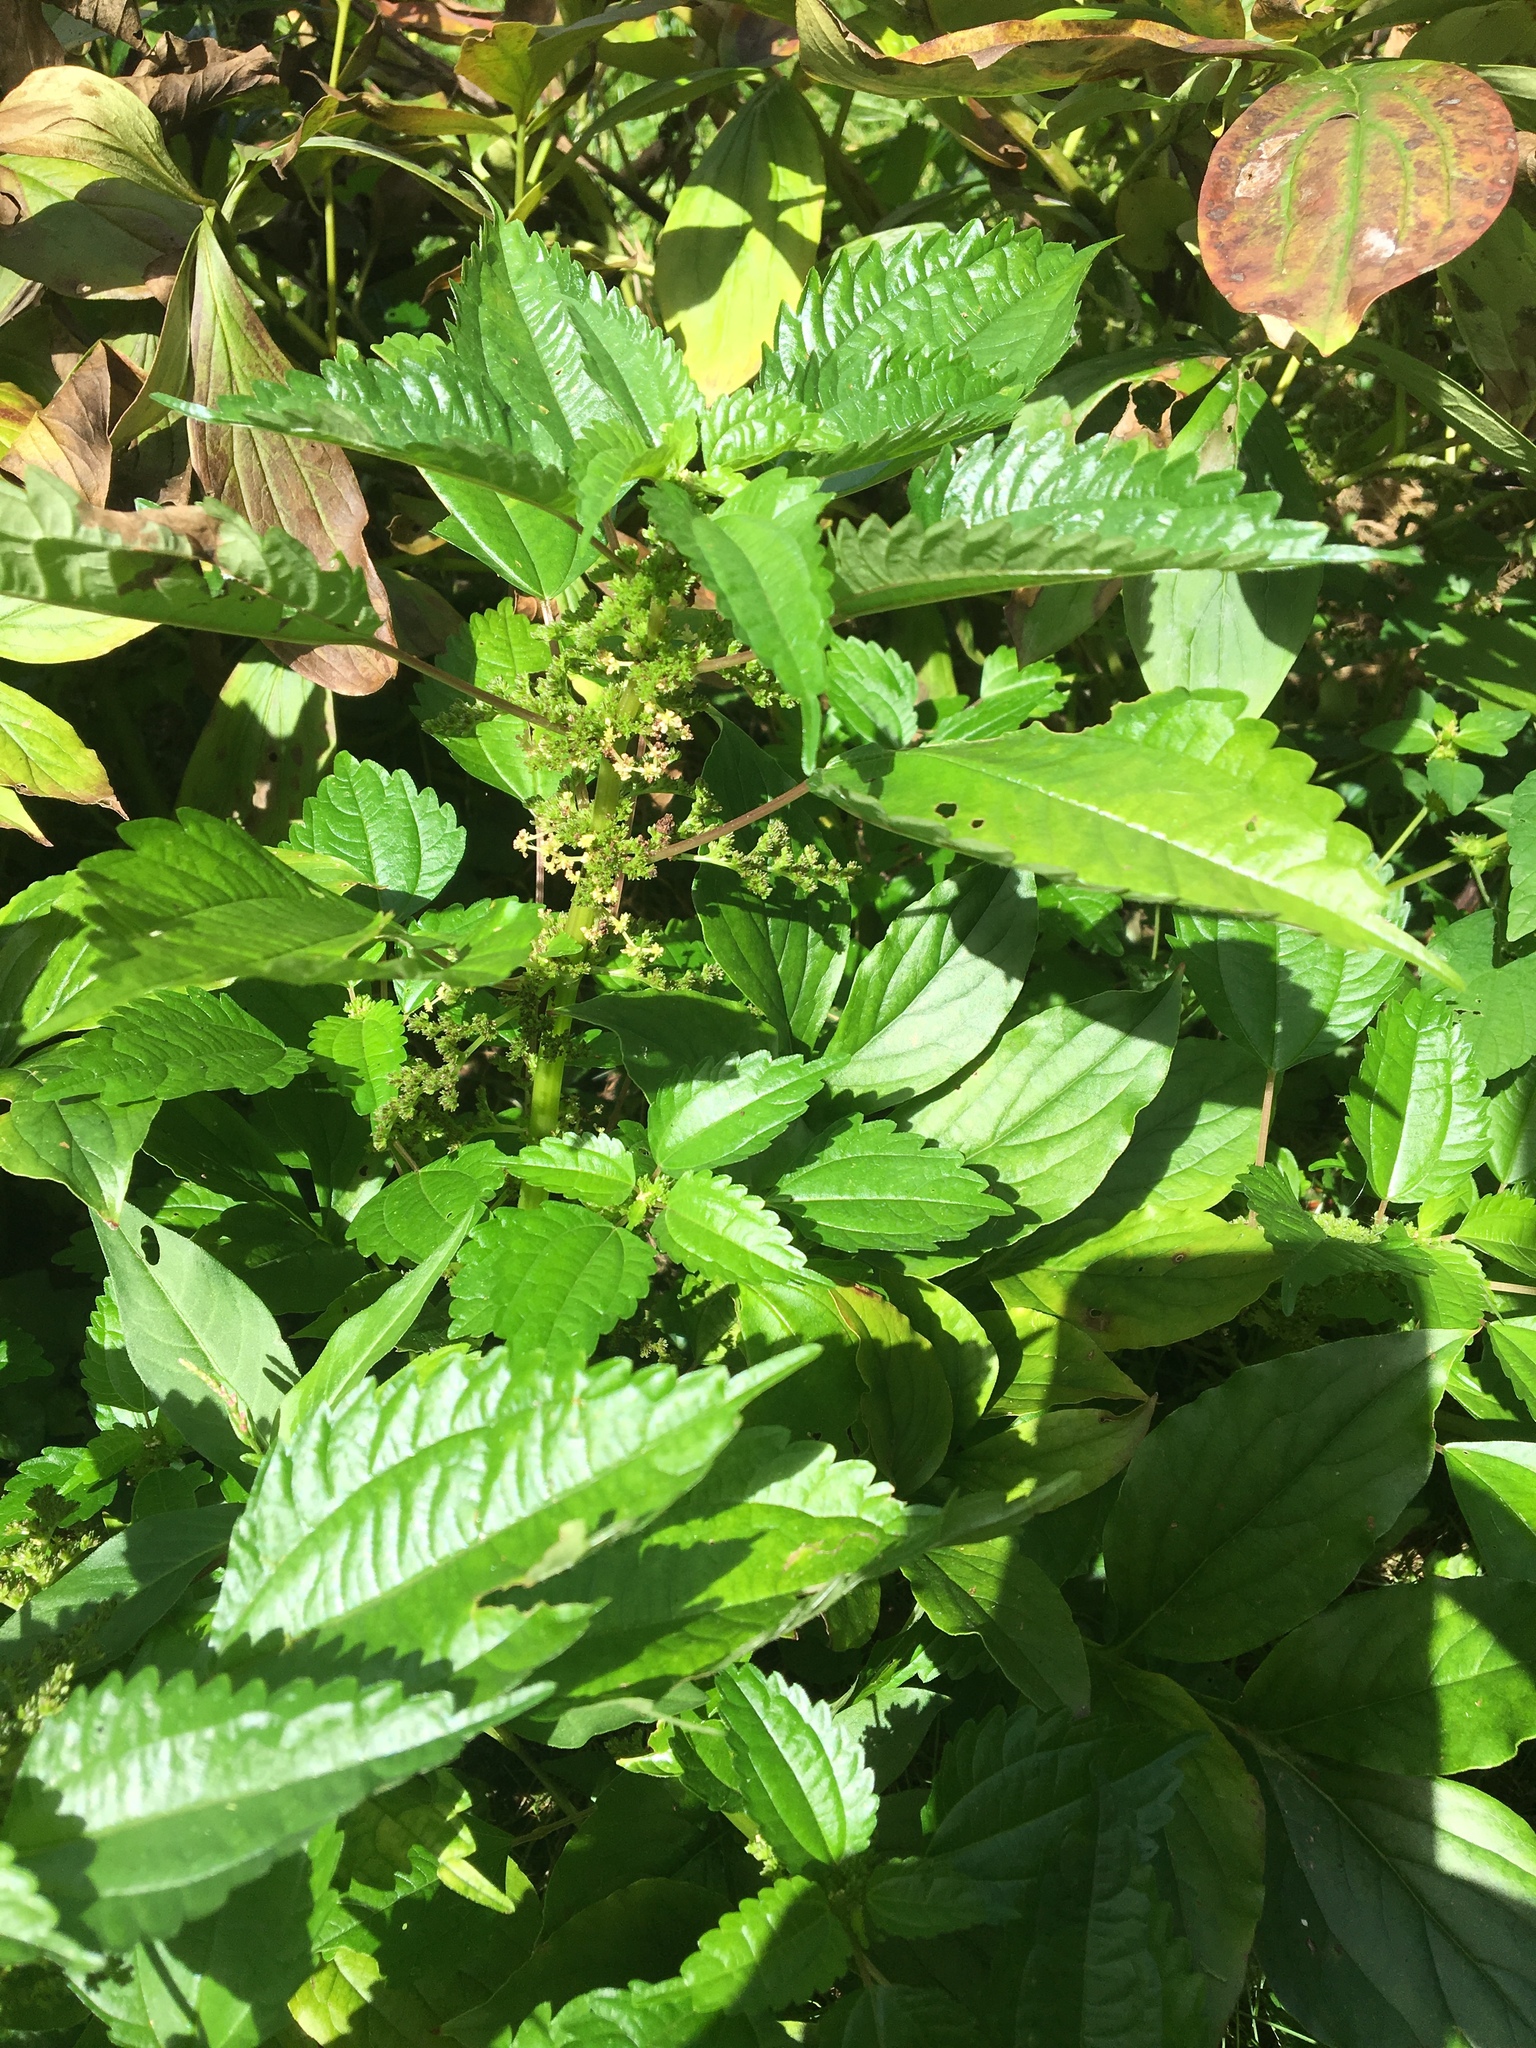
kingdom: Plantae
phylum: Tracheophyta
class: Magnoliopsida
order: Rosales
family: Urticaceae
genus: Pilea
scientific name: Pilea pumila
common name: Clearweed
